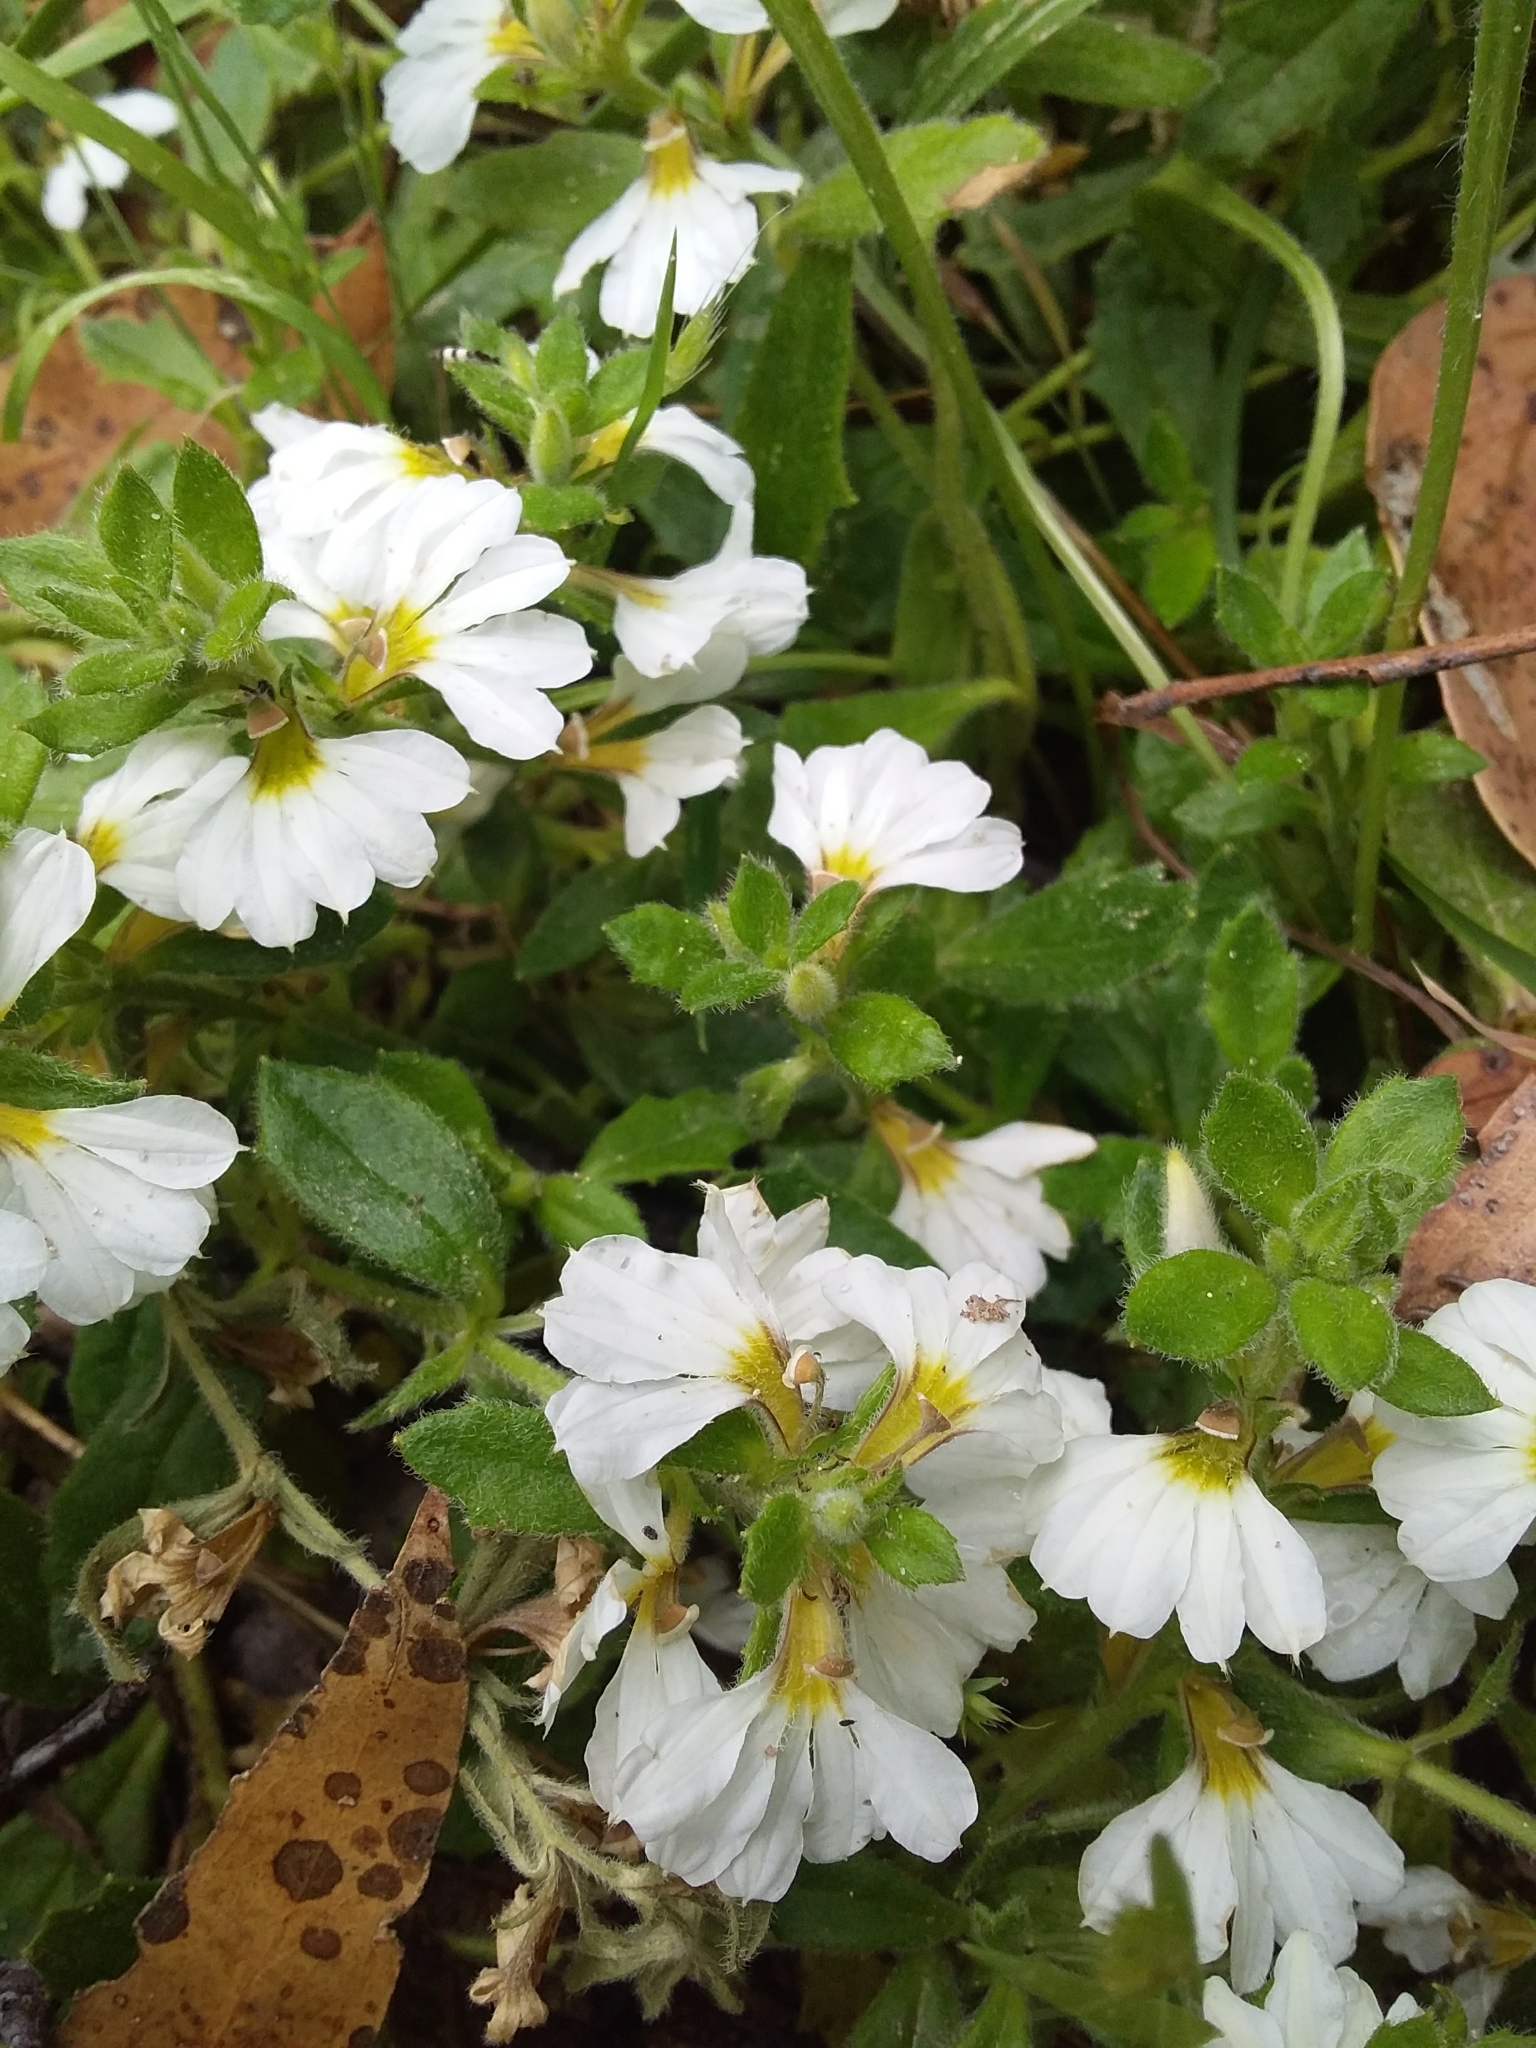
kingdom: Plantae
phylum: Tracheophyta
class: Magnoliopsida
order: Asterales
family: Goodeniaceae
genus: Scaevola
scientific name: Scaevola albida
